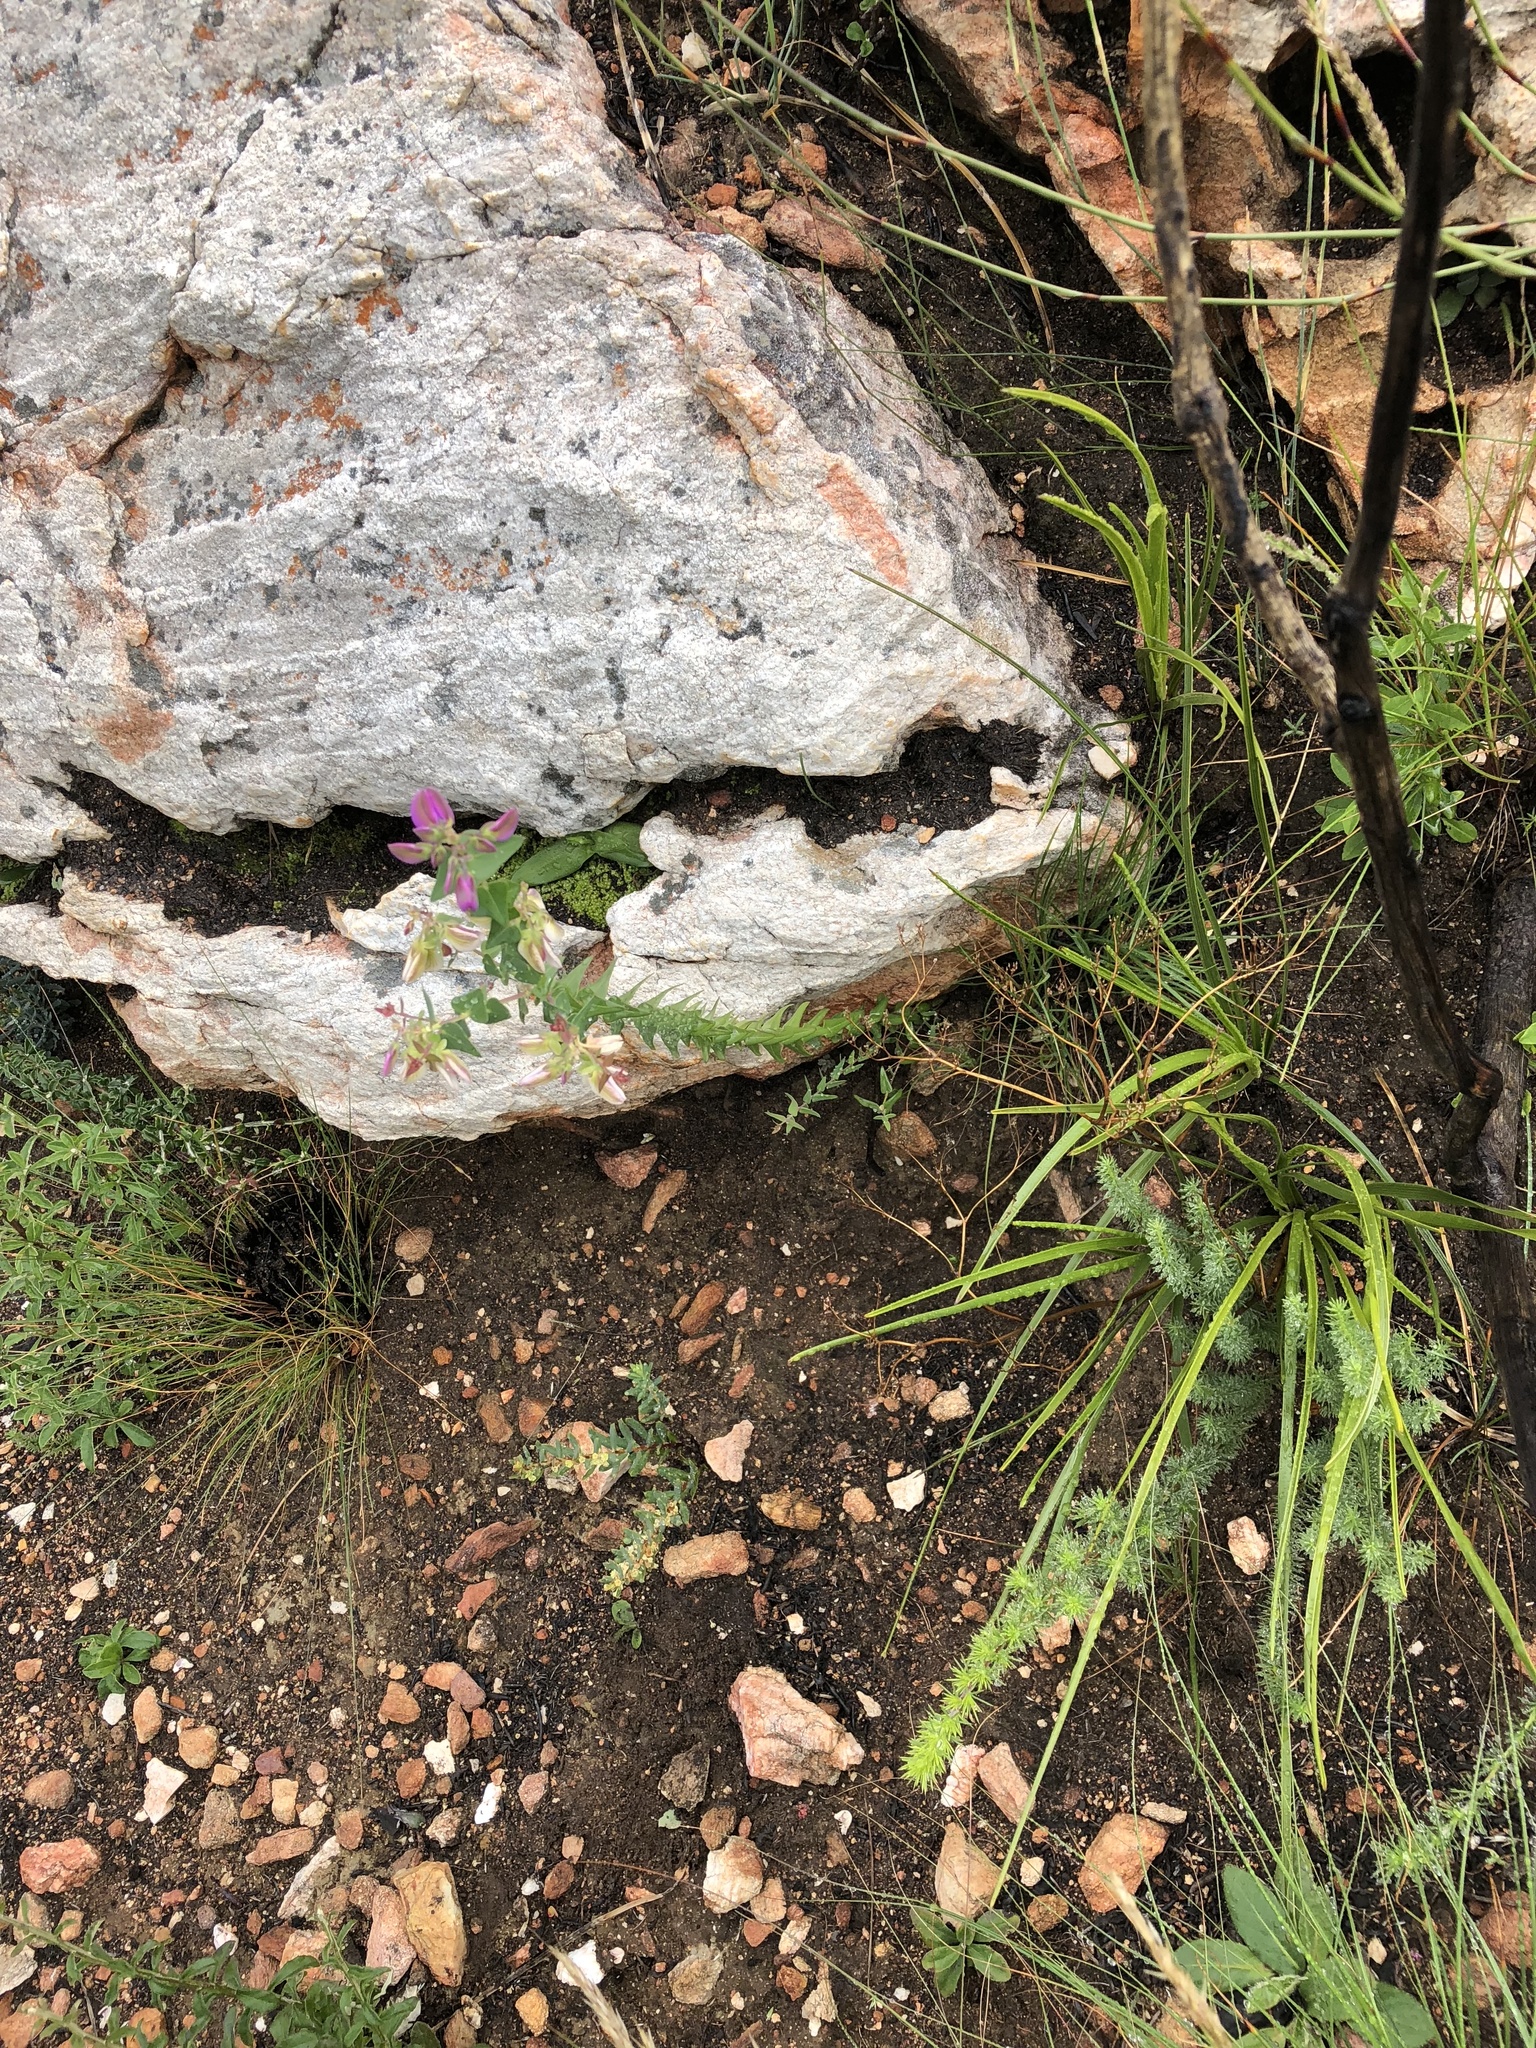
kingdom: Plantae
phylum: Tracheophyta
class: Magnoliopsida
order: Fabales
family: Polygalaceae
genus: Polygala
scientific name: Polygala fruticosa
